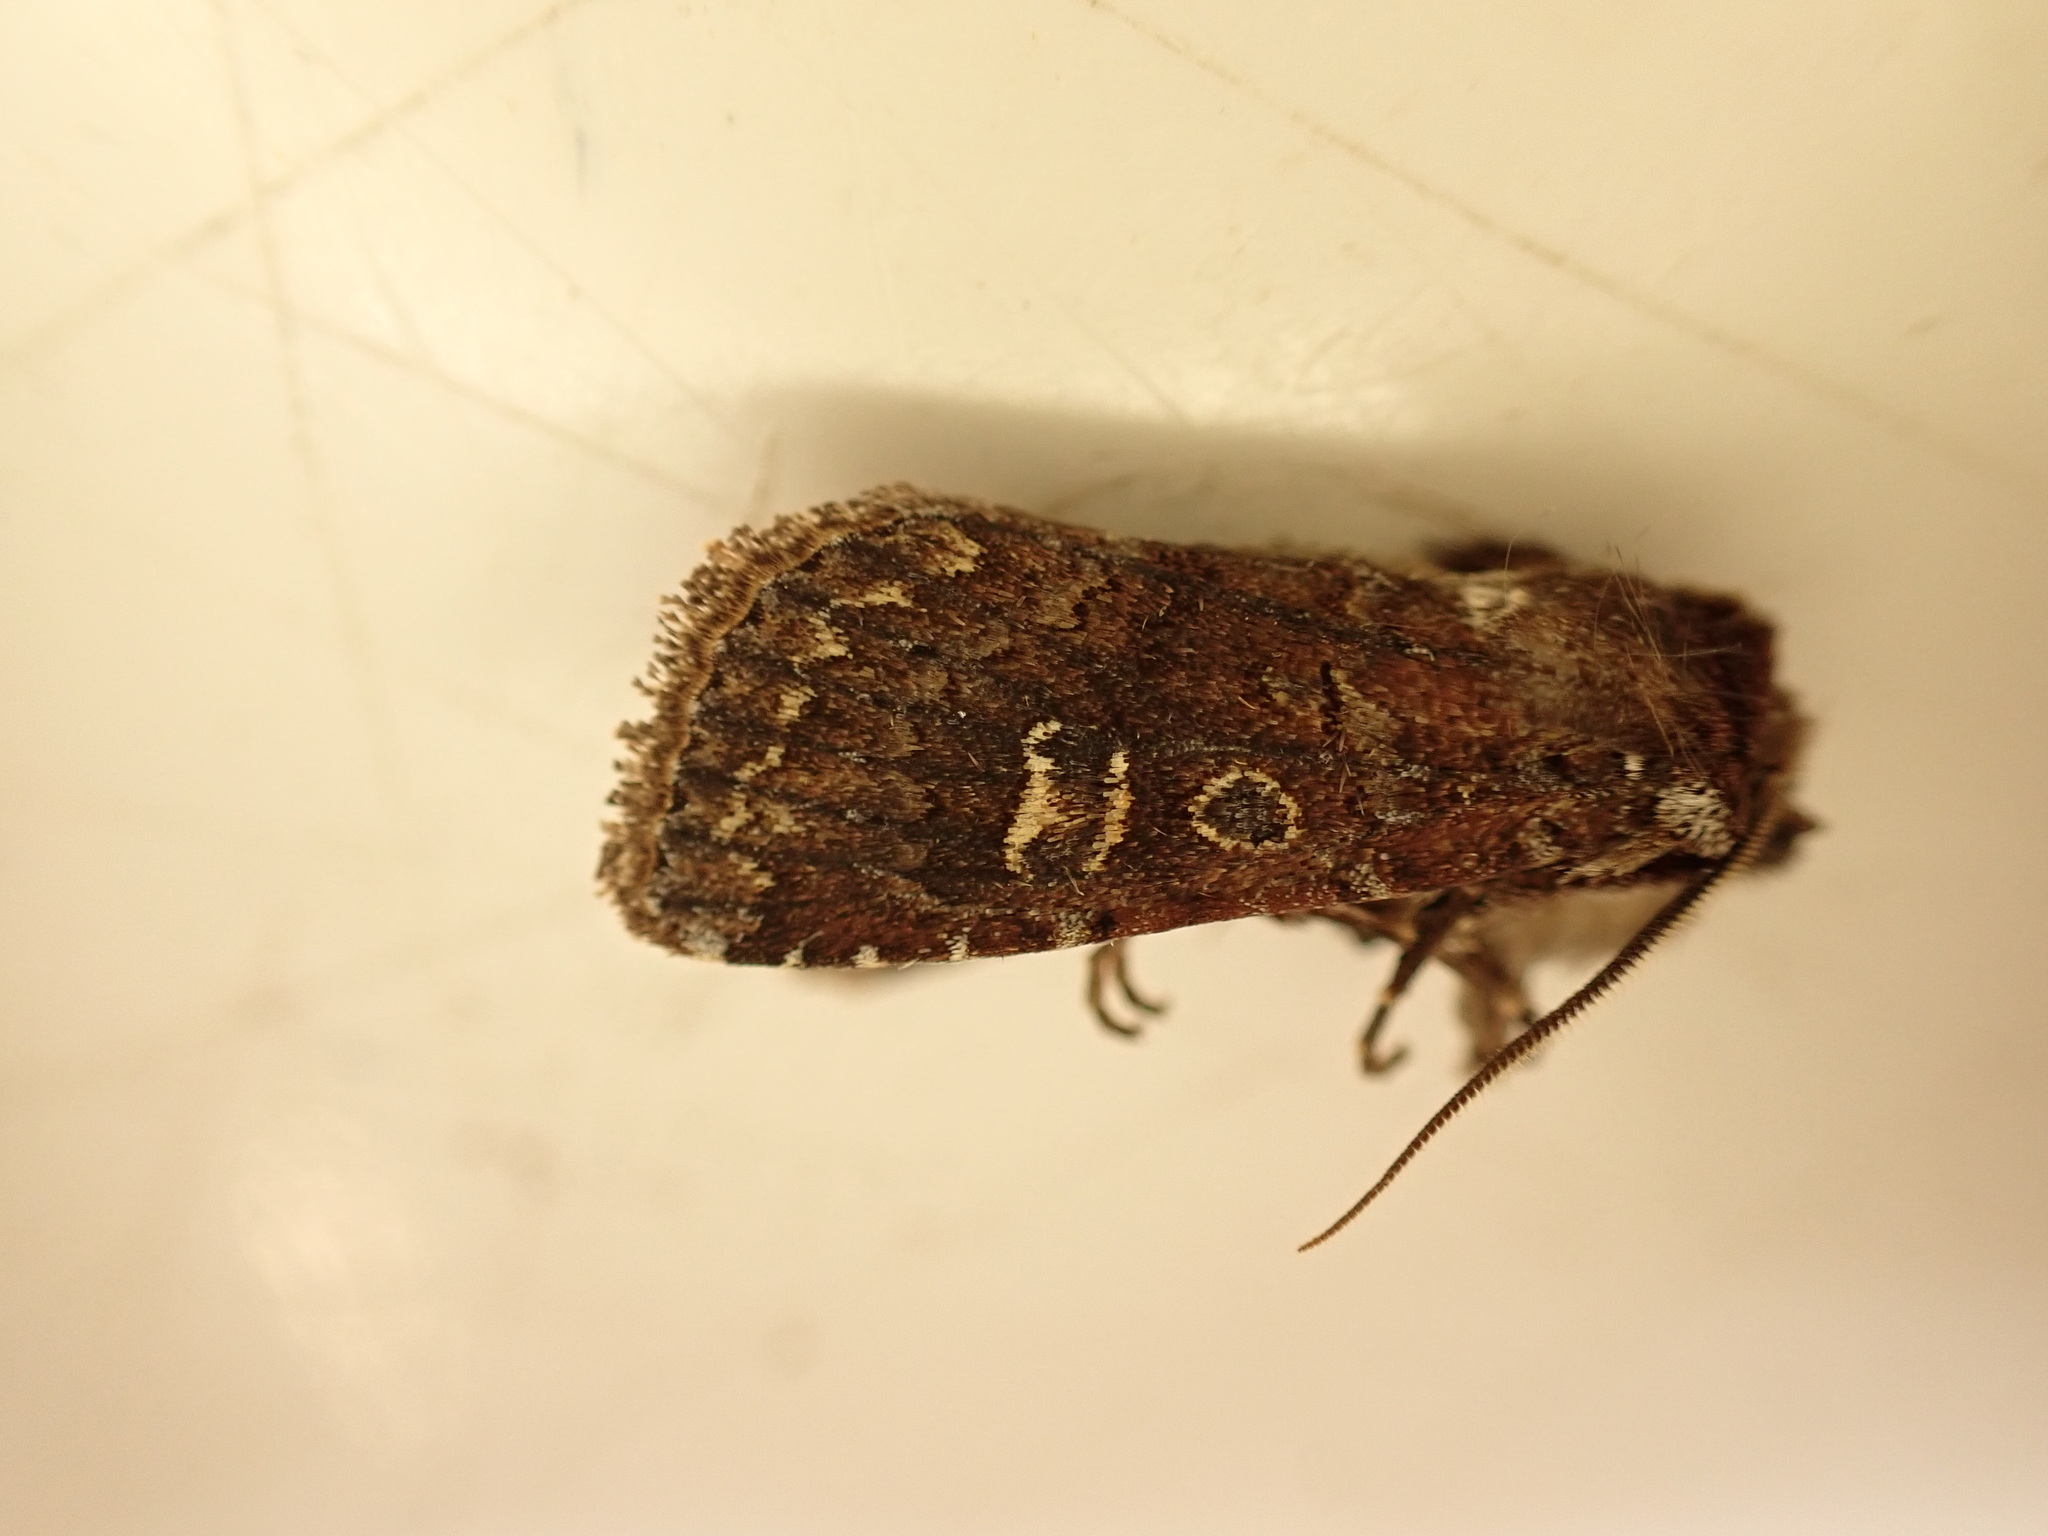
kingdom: Animalia
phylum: Arthropoda
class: Insecta
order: Lepidoptera
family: Noctuidae
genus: Ichneutica
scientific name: Ichneutica agorastis
